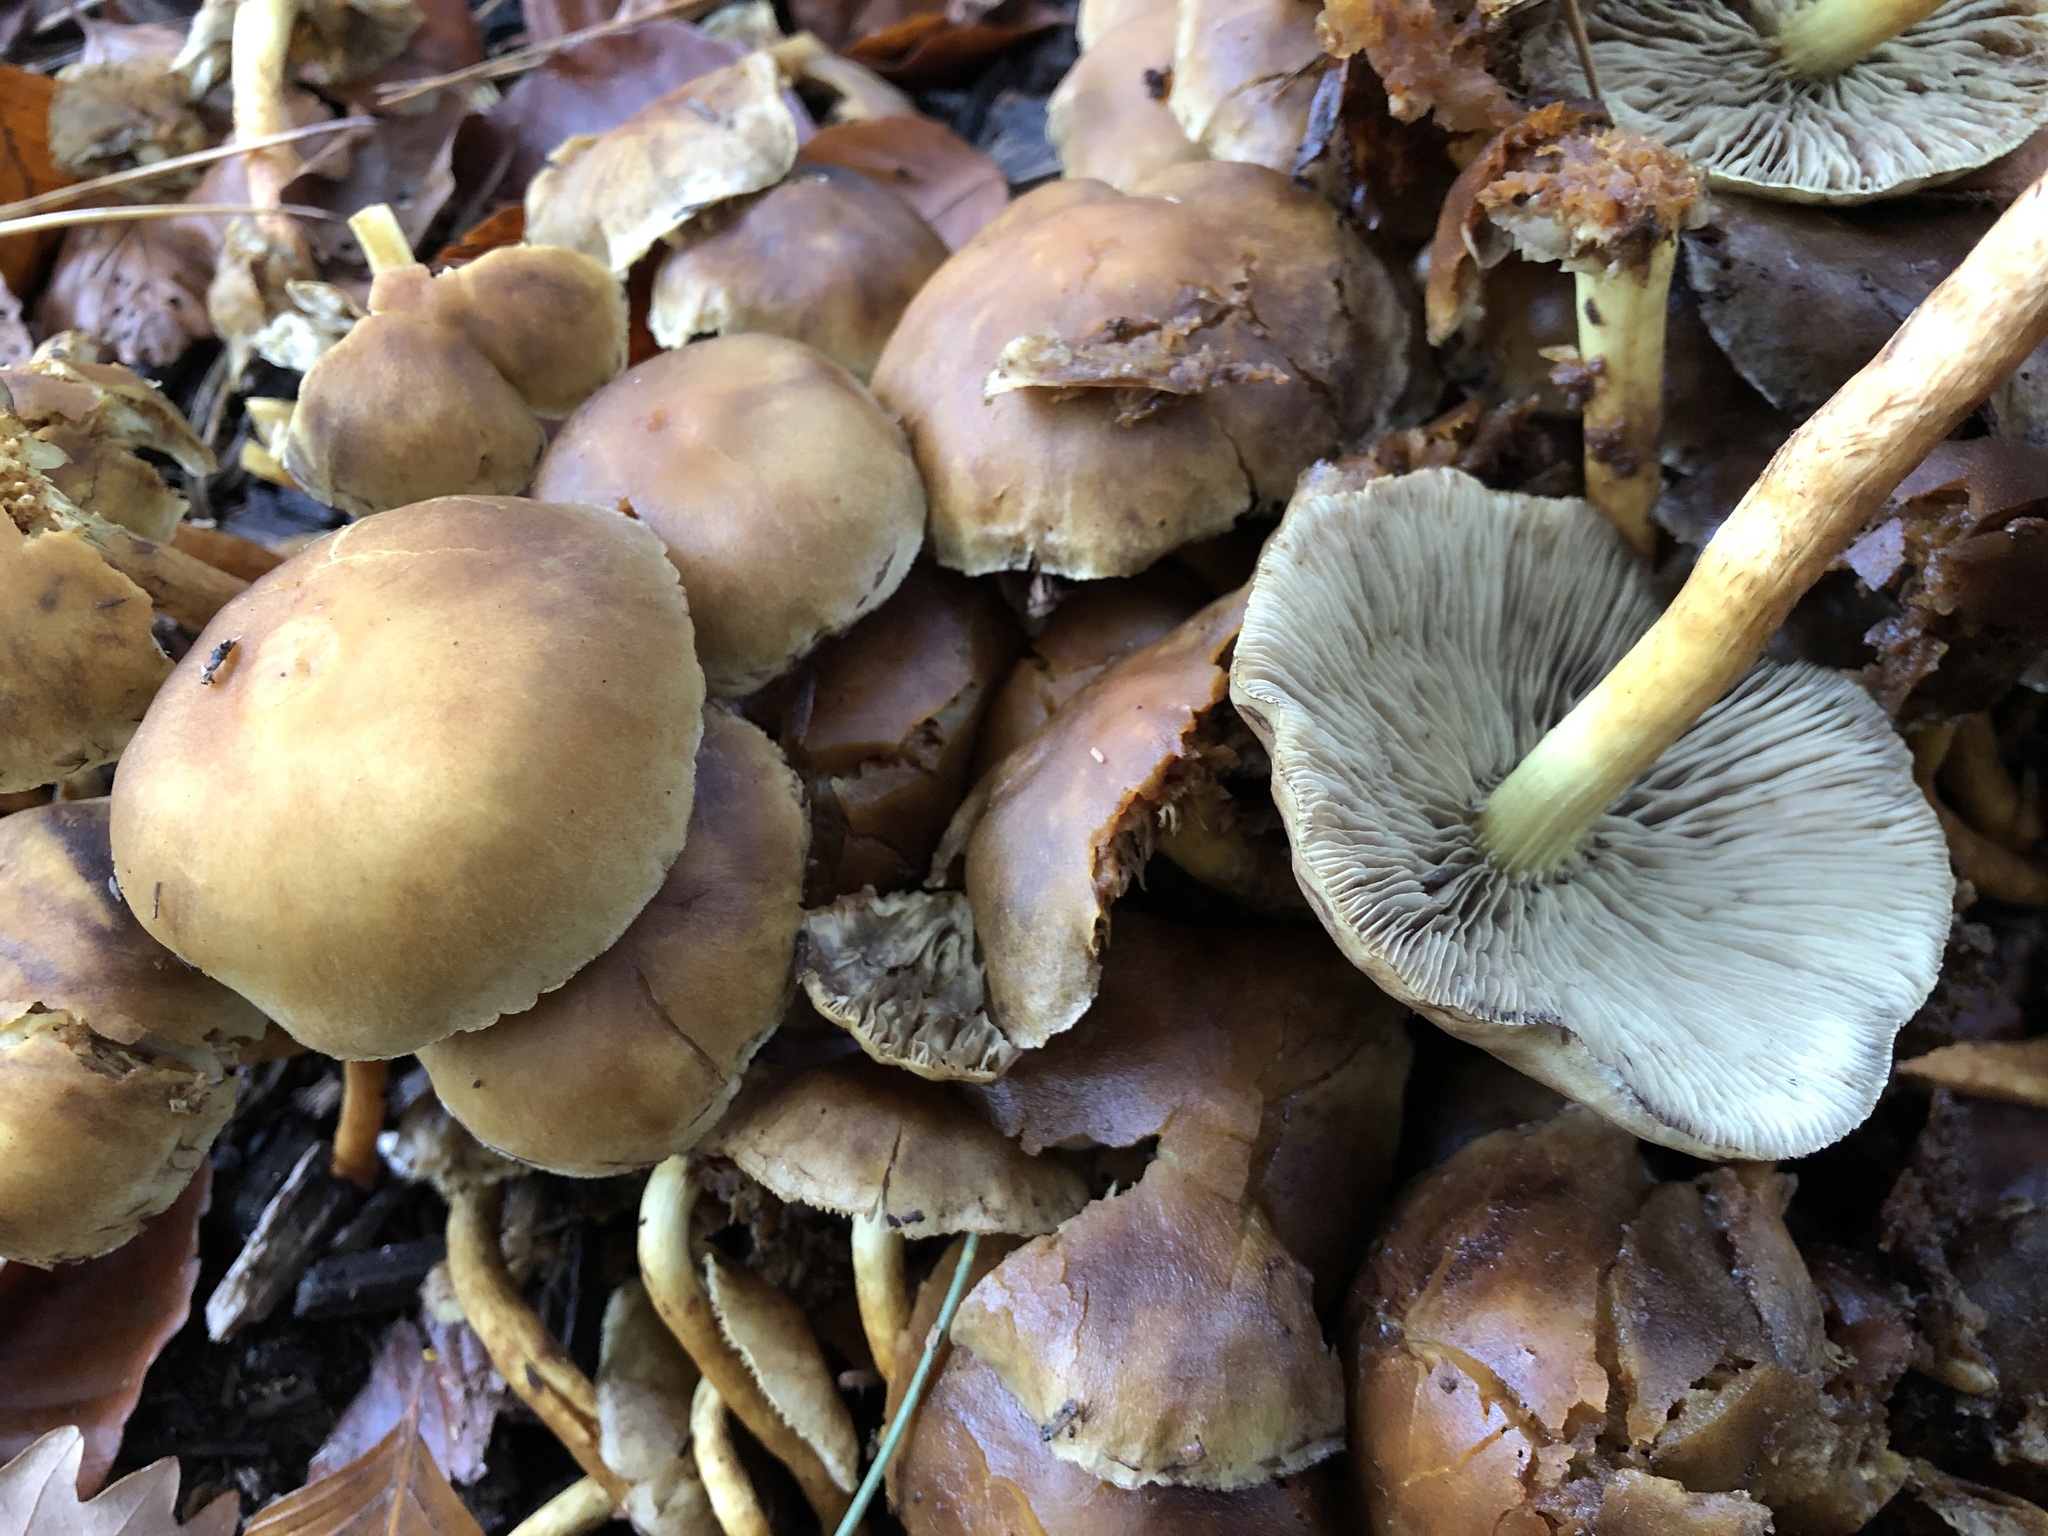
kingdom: Fungi
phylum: Basidiomycota
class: Agaricomycetes
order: Agaricales
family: Strophariaceae
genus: Hypholoma
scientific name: Hypholoma fasciculare
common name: Sulphur tuft
